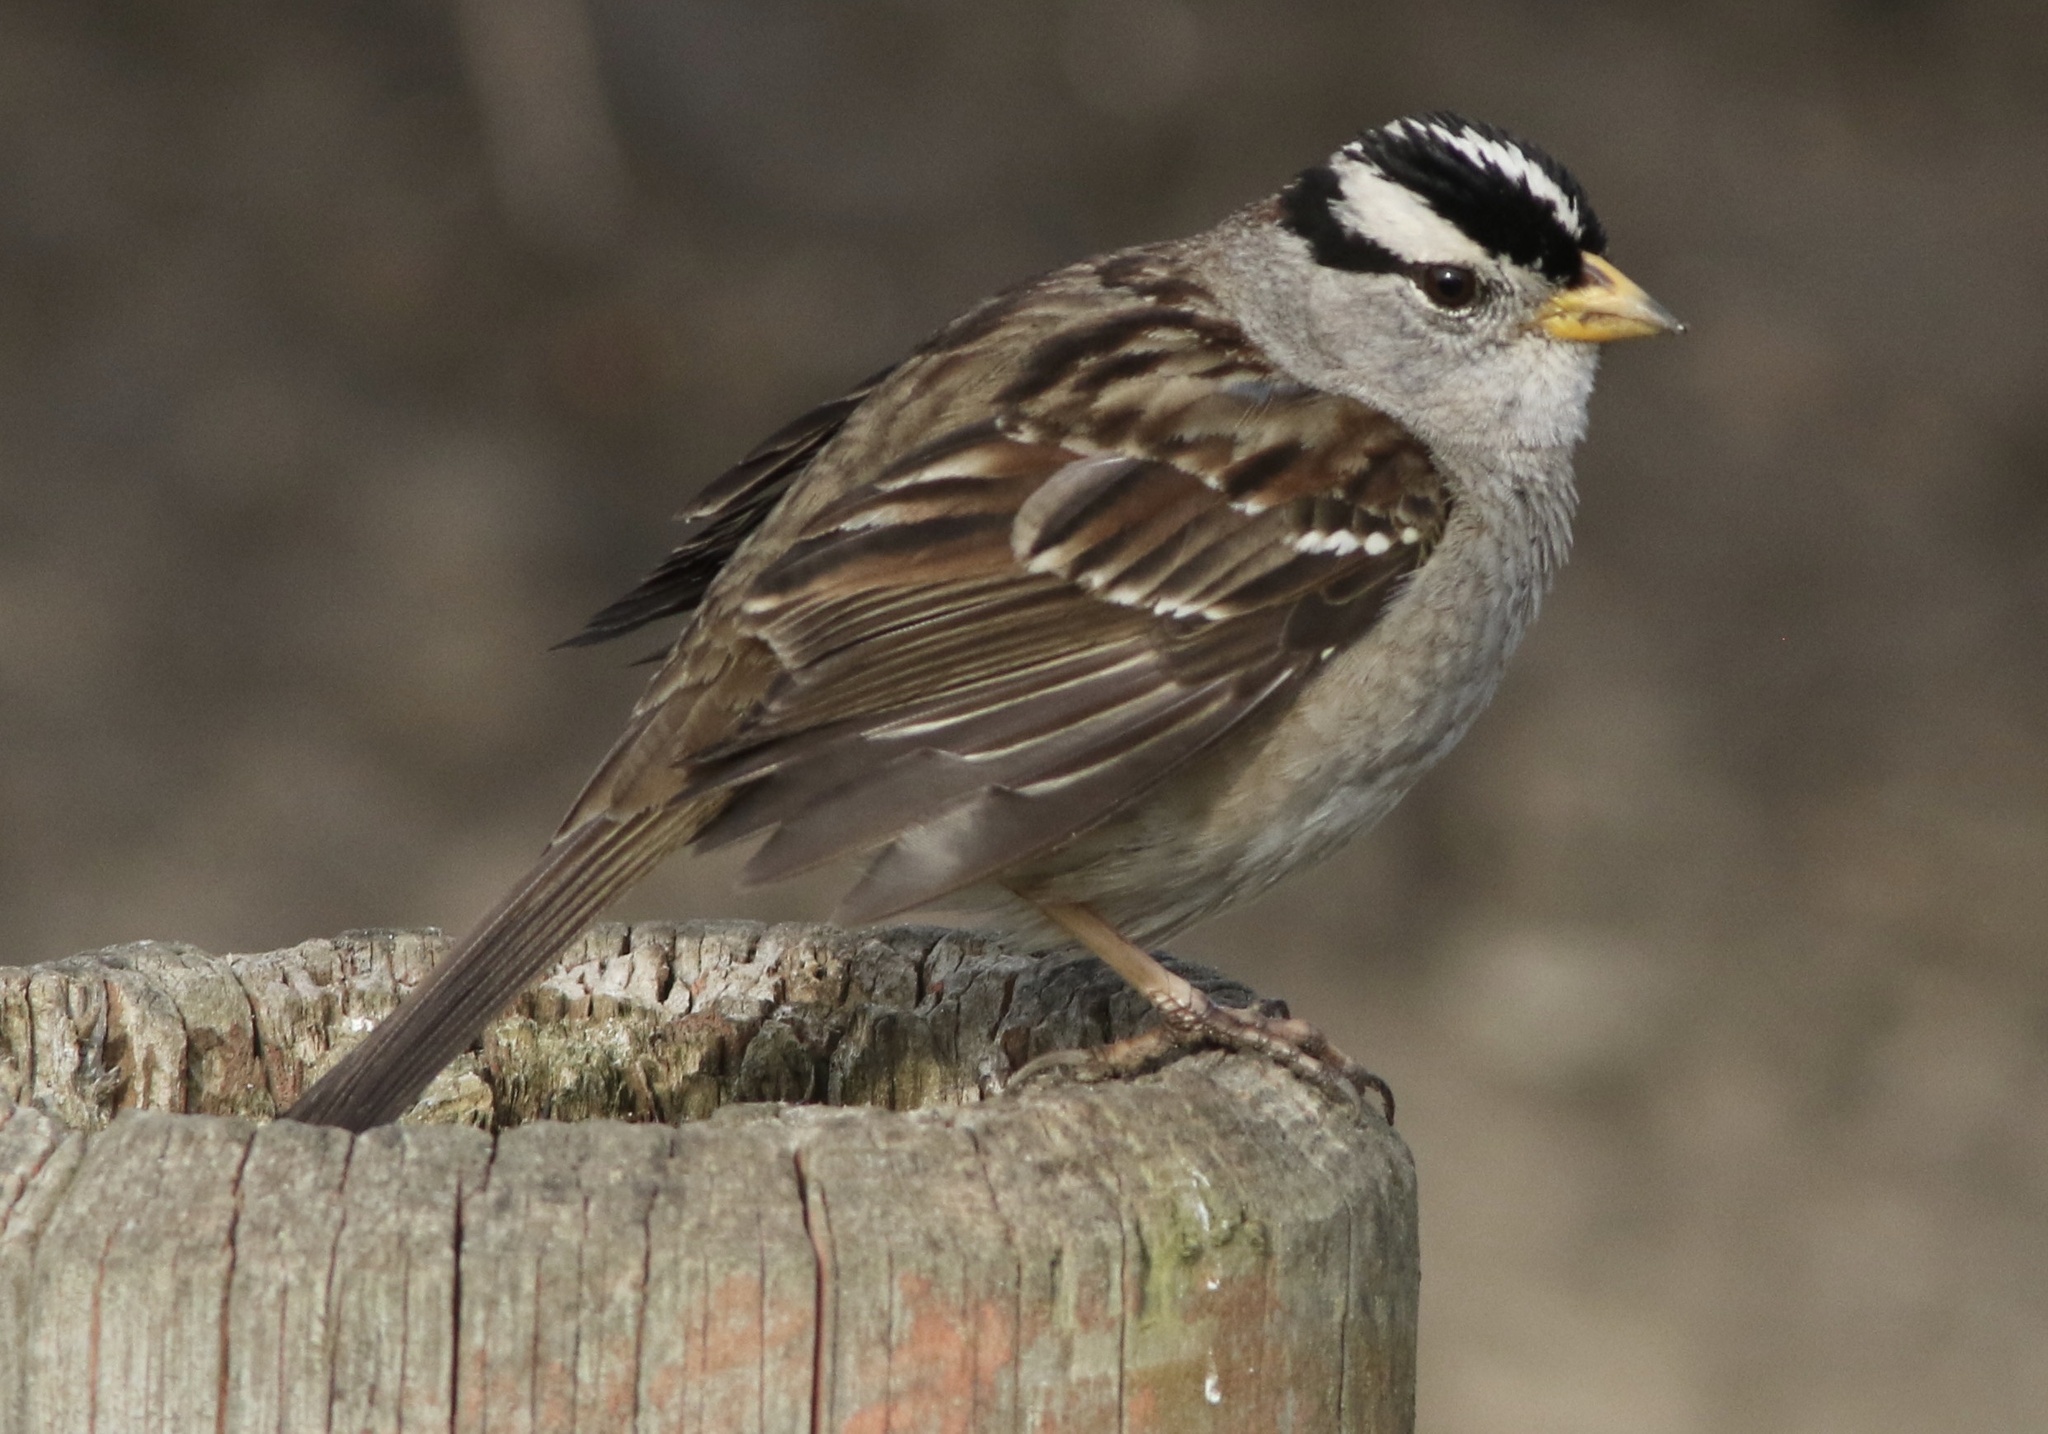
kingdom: Animalia
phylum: Chordata
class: Aves
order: Passeriformes
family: Passerellidae
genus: Zonotrichia
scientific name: Zonotrichia leucophrys
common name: White-crowned sparrow
